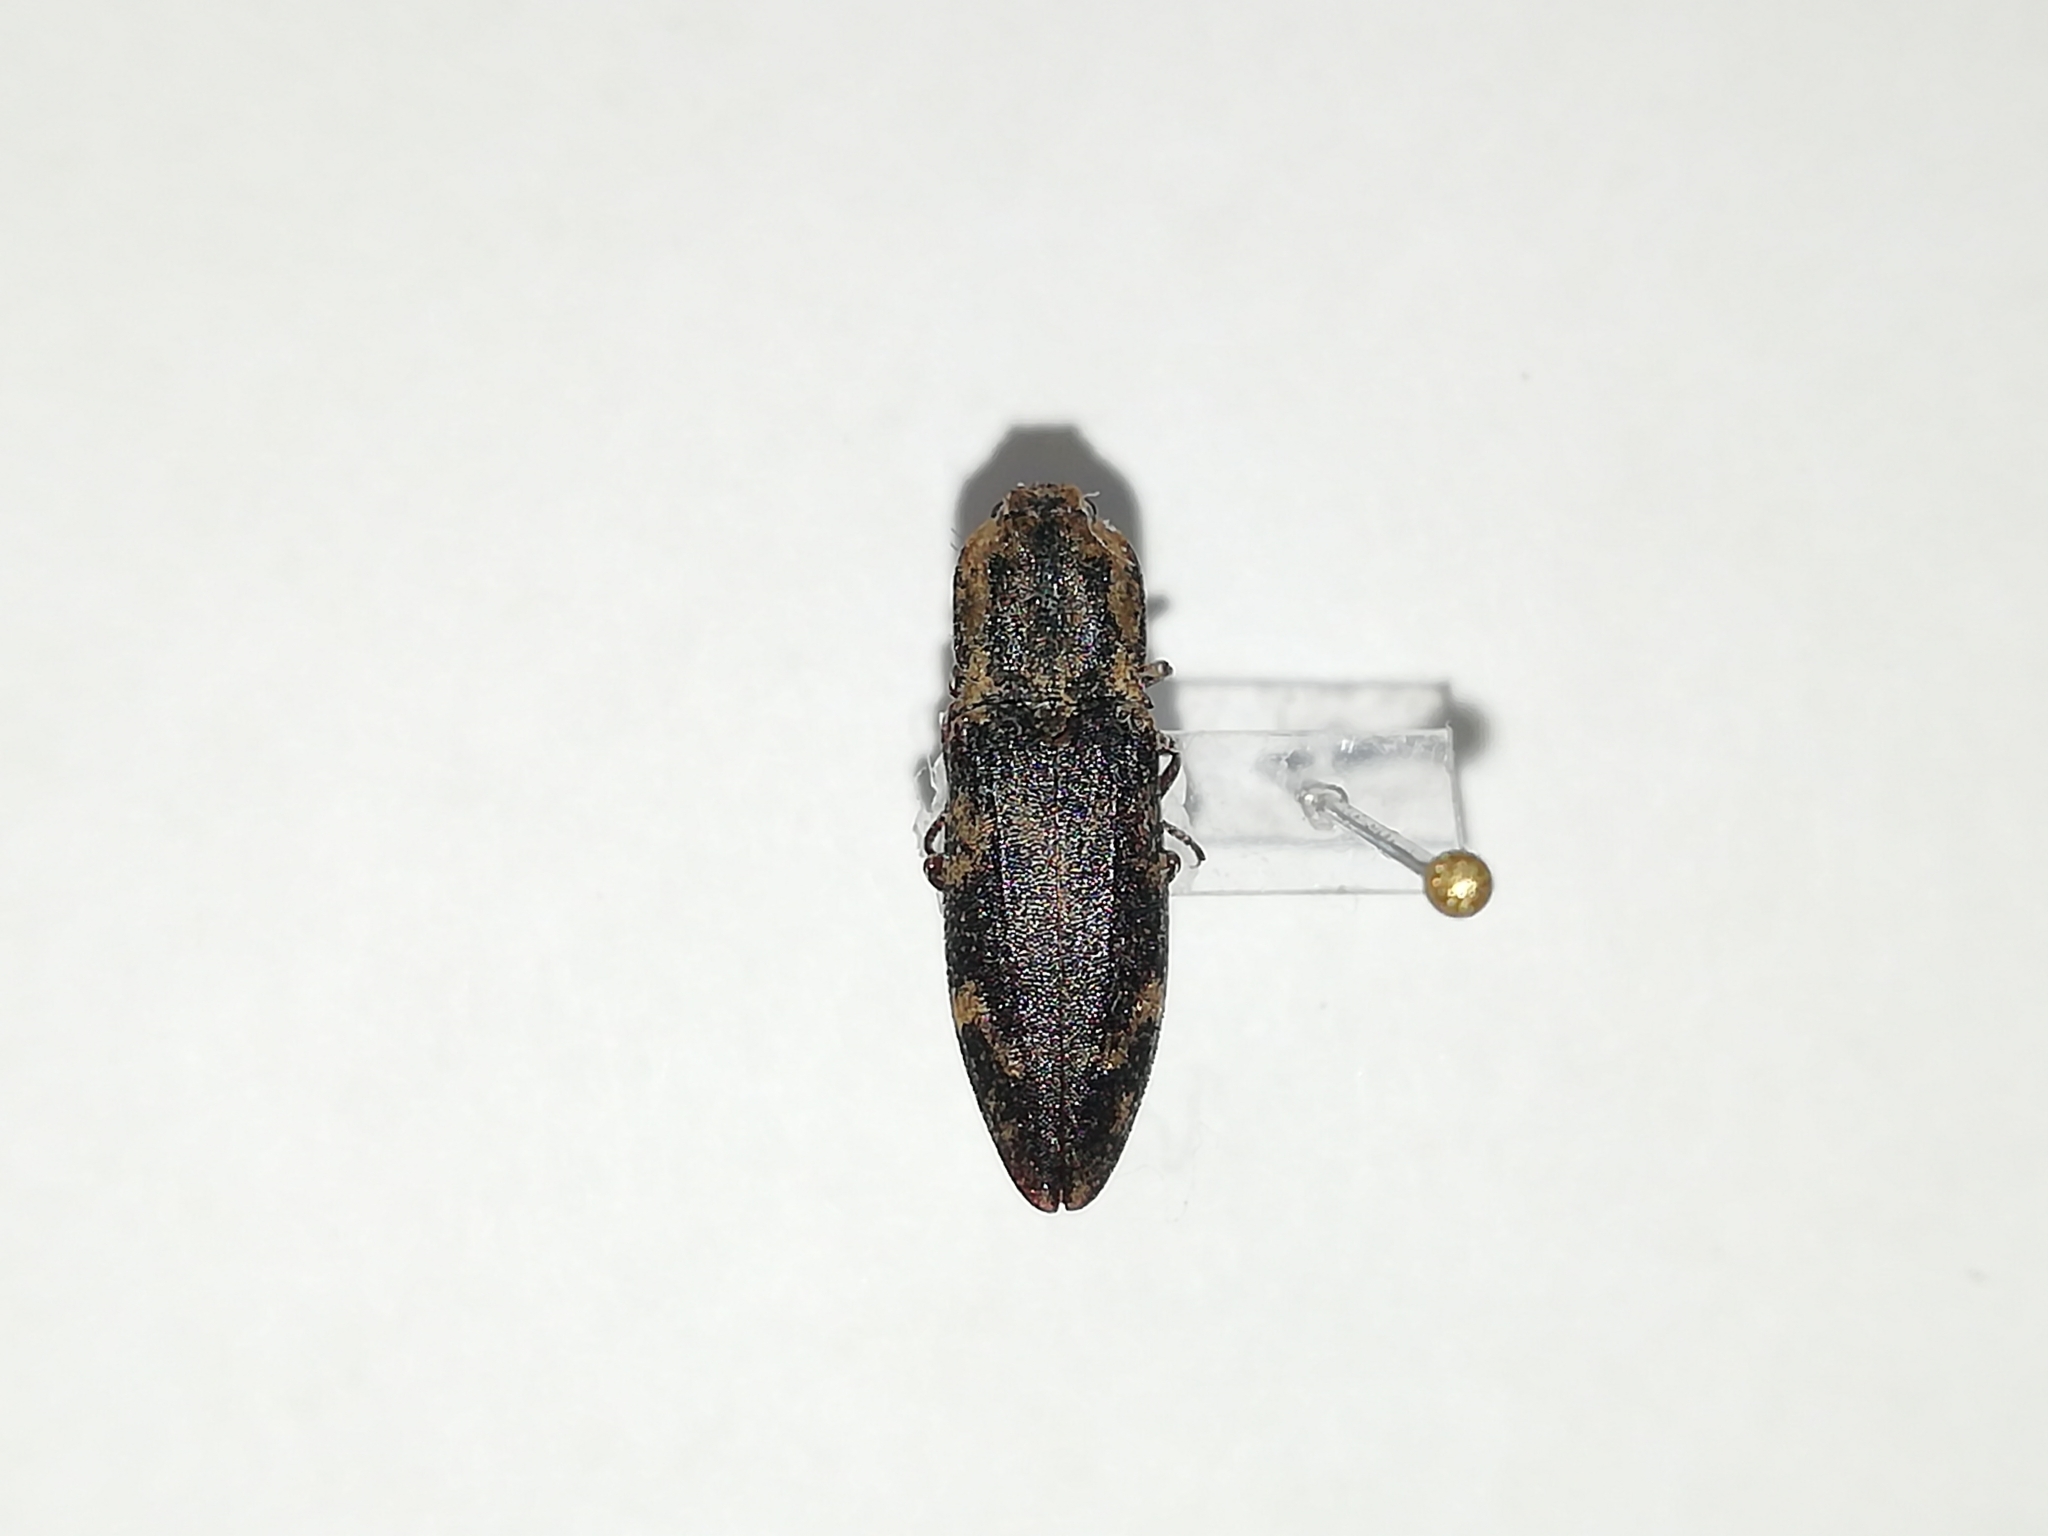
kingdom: Animalia
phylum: Arthropoda
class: Insecta
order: Coleoptera
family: Elateridae
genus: Danosoma
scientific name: Danosoma fasciatum
